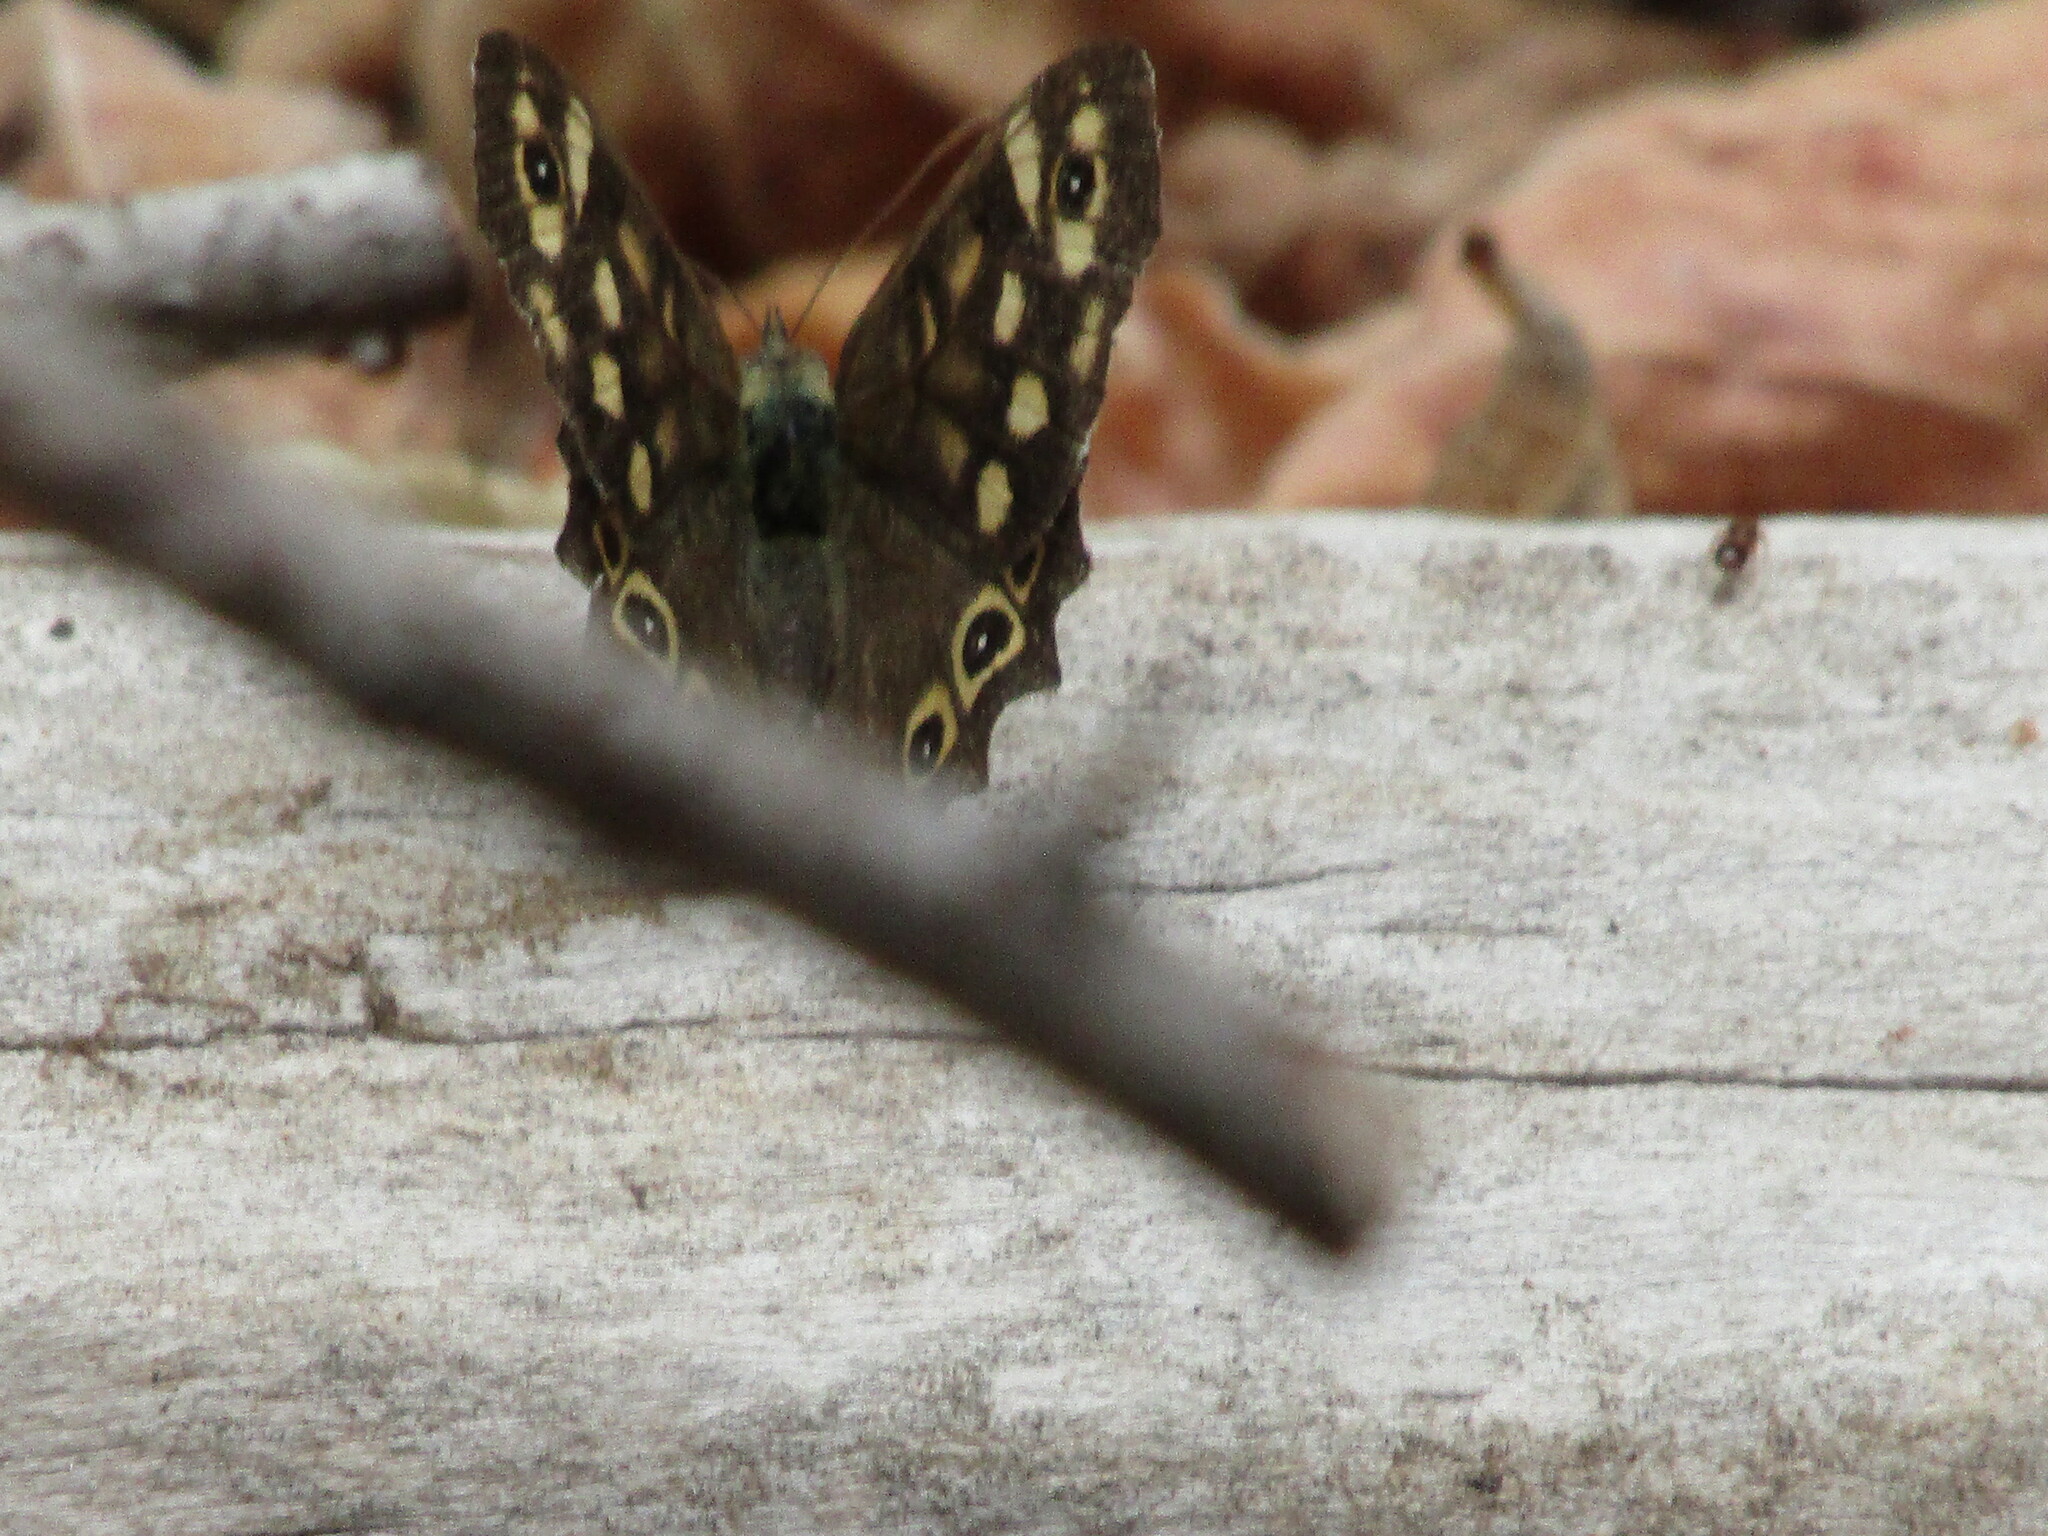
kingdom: Animalia
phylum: Arthropoda
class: Insecta
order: Lepidoptera
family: Nymphalidae
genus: Pararge
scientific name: Pararge aegeria
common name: Speckled wood
